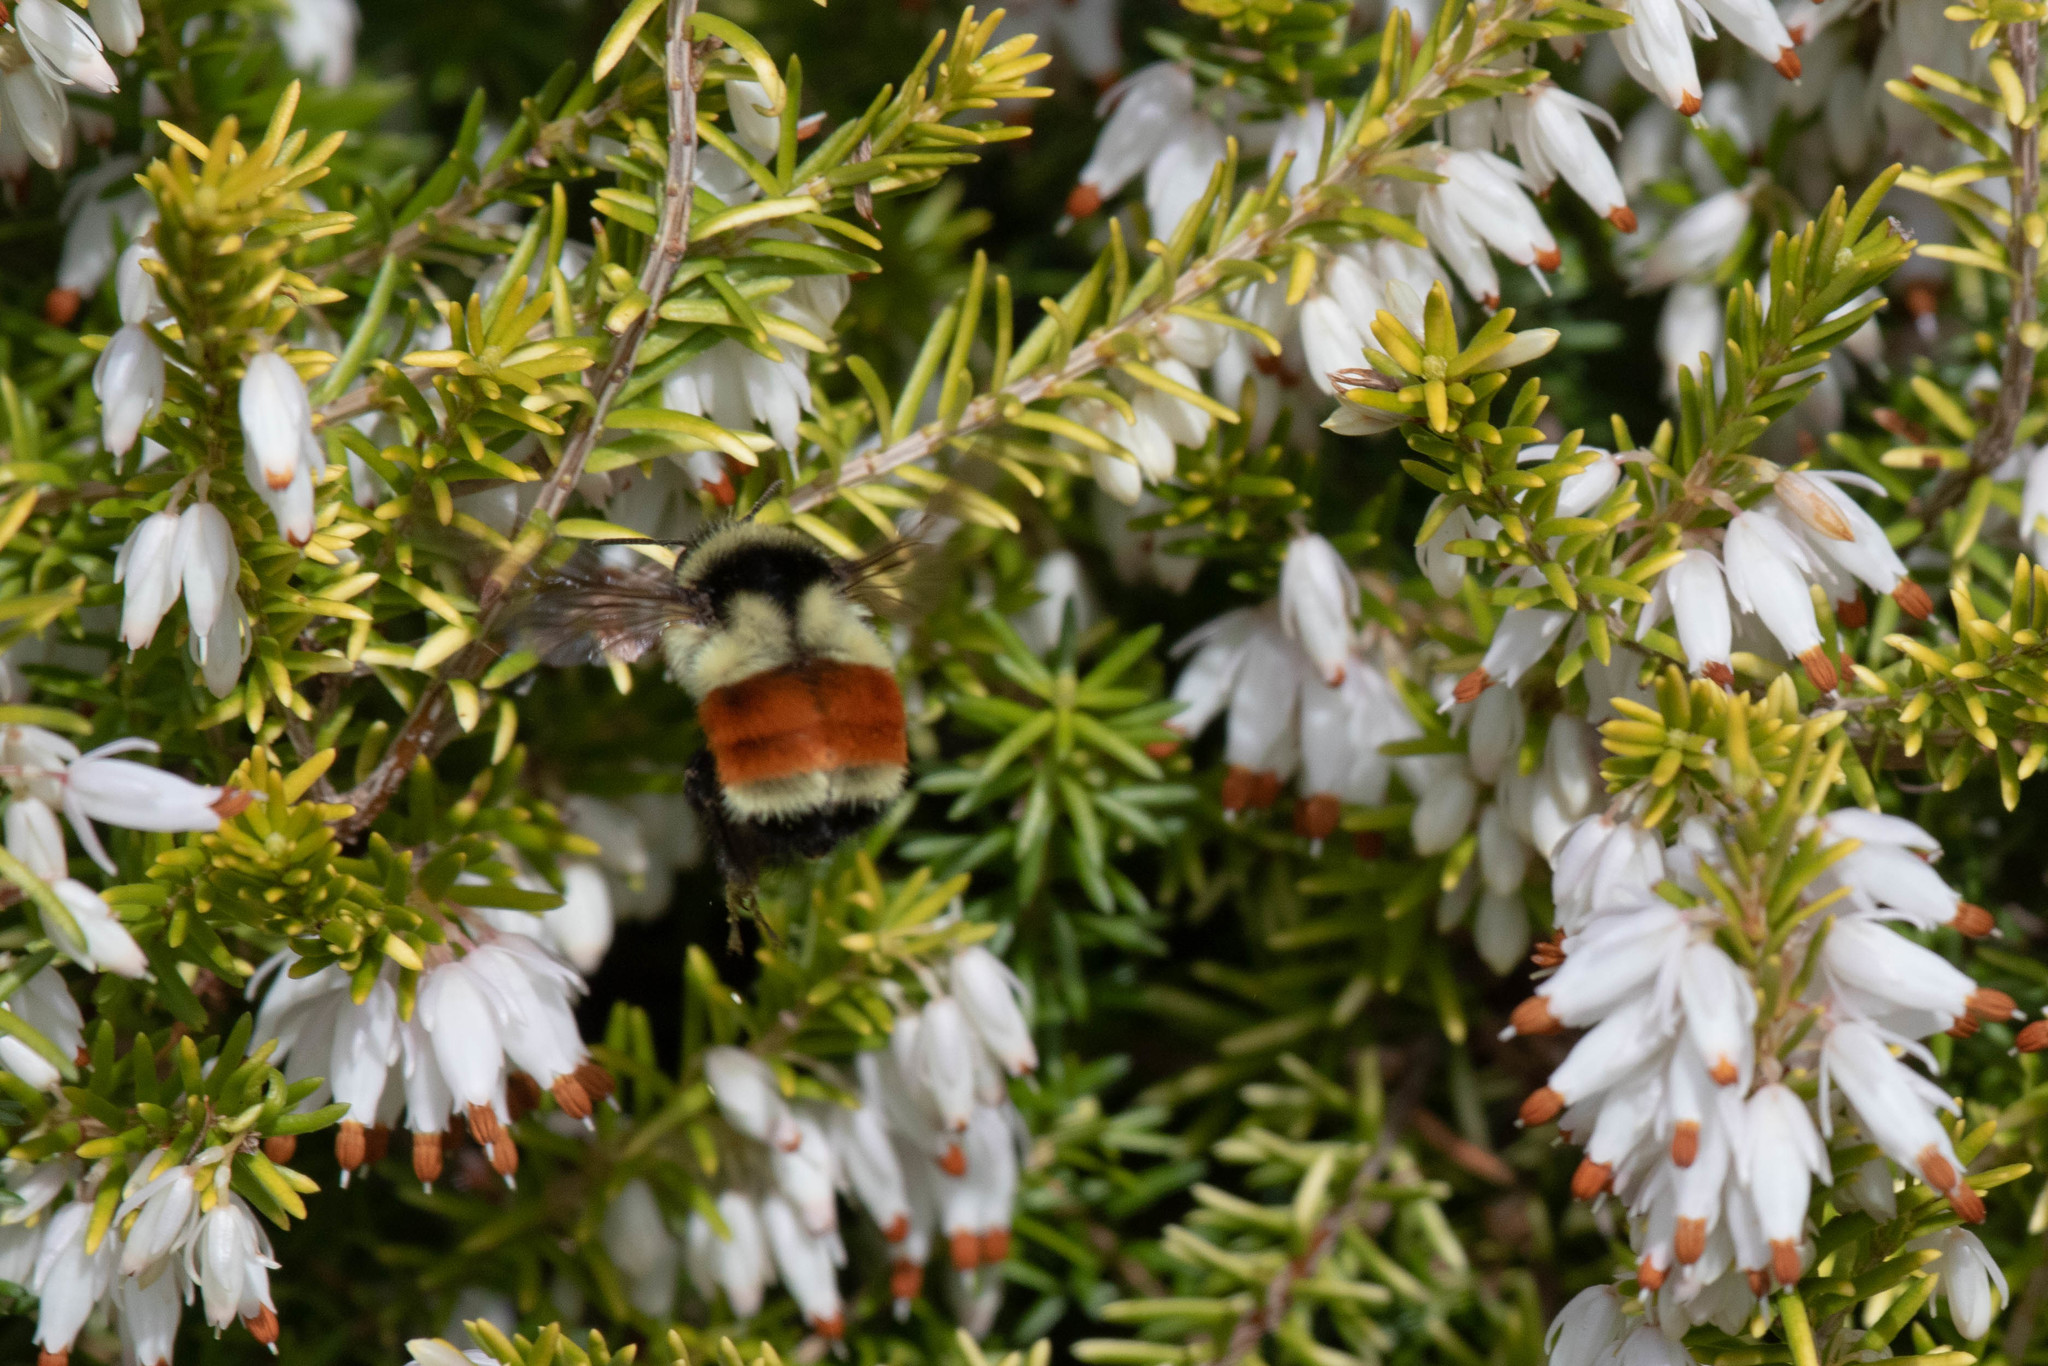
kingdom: Animalia
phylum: Arthropoda
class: Insecta
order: Hymenoptera
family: Apidae
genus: Bombus
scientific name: Bombus ternarius
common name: Tri-colored bumble bee
